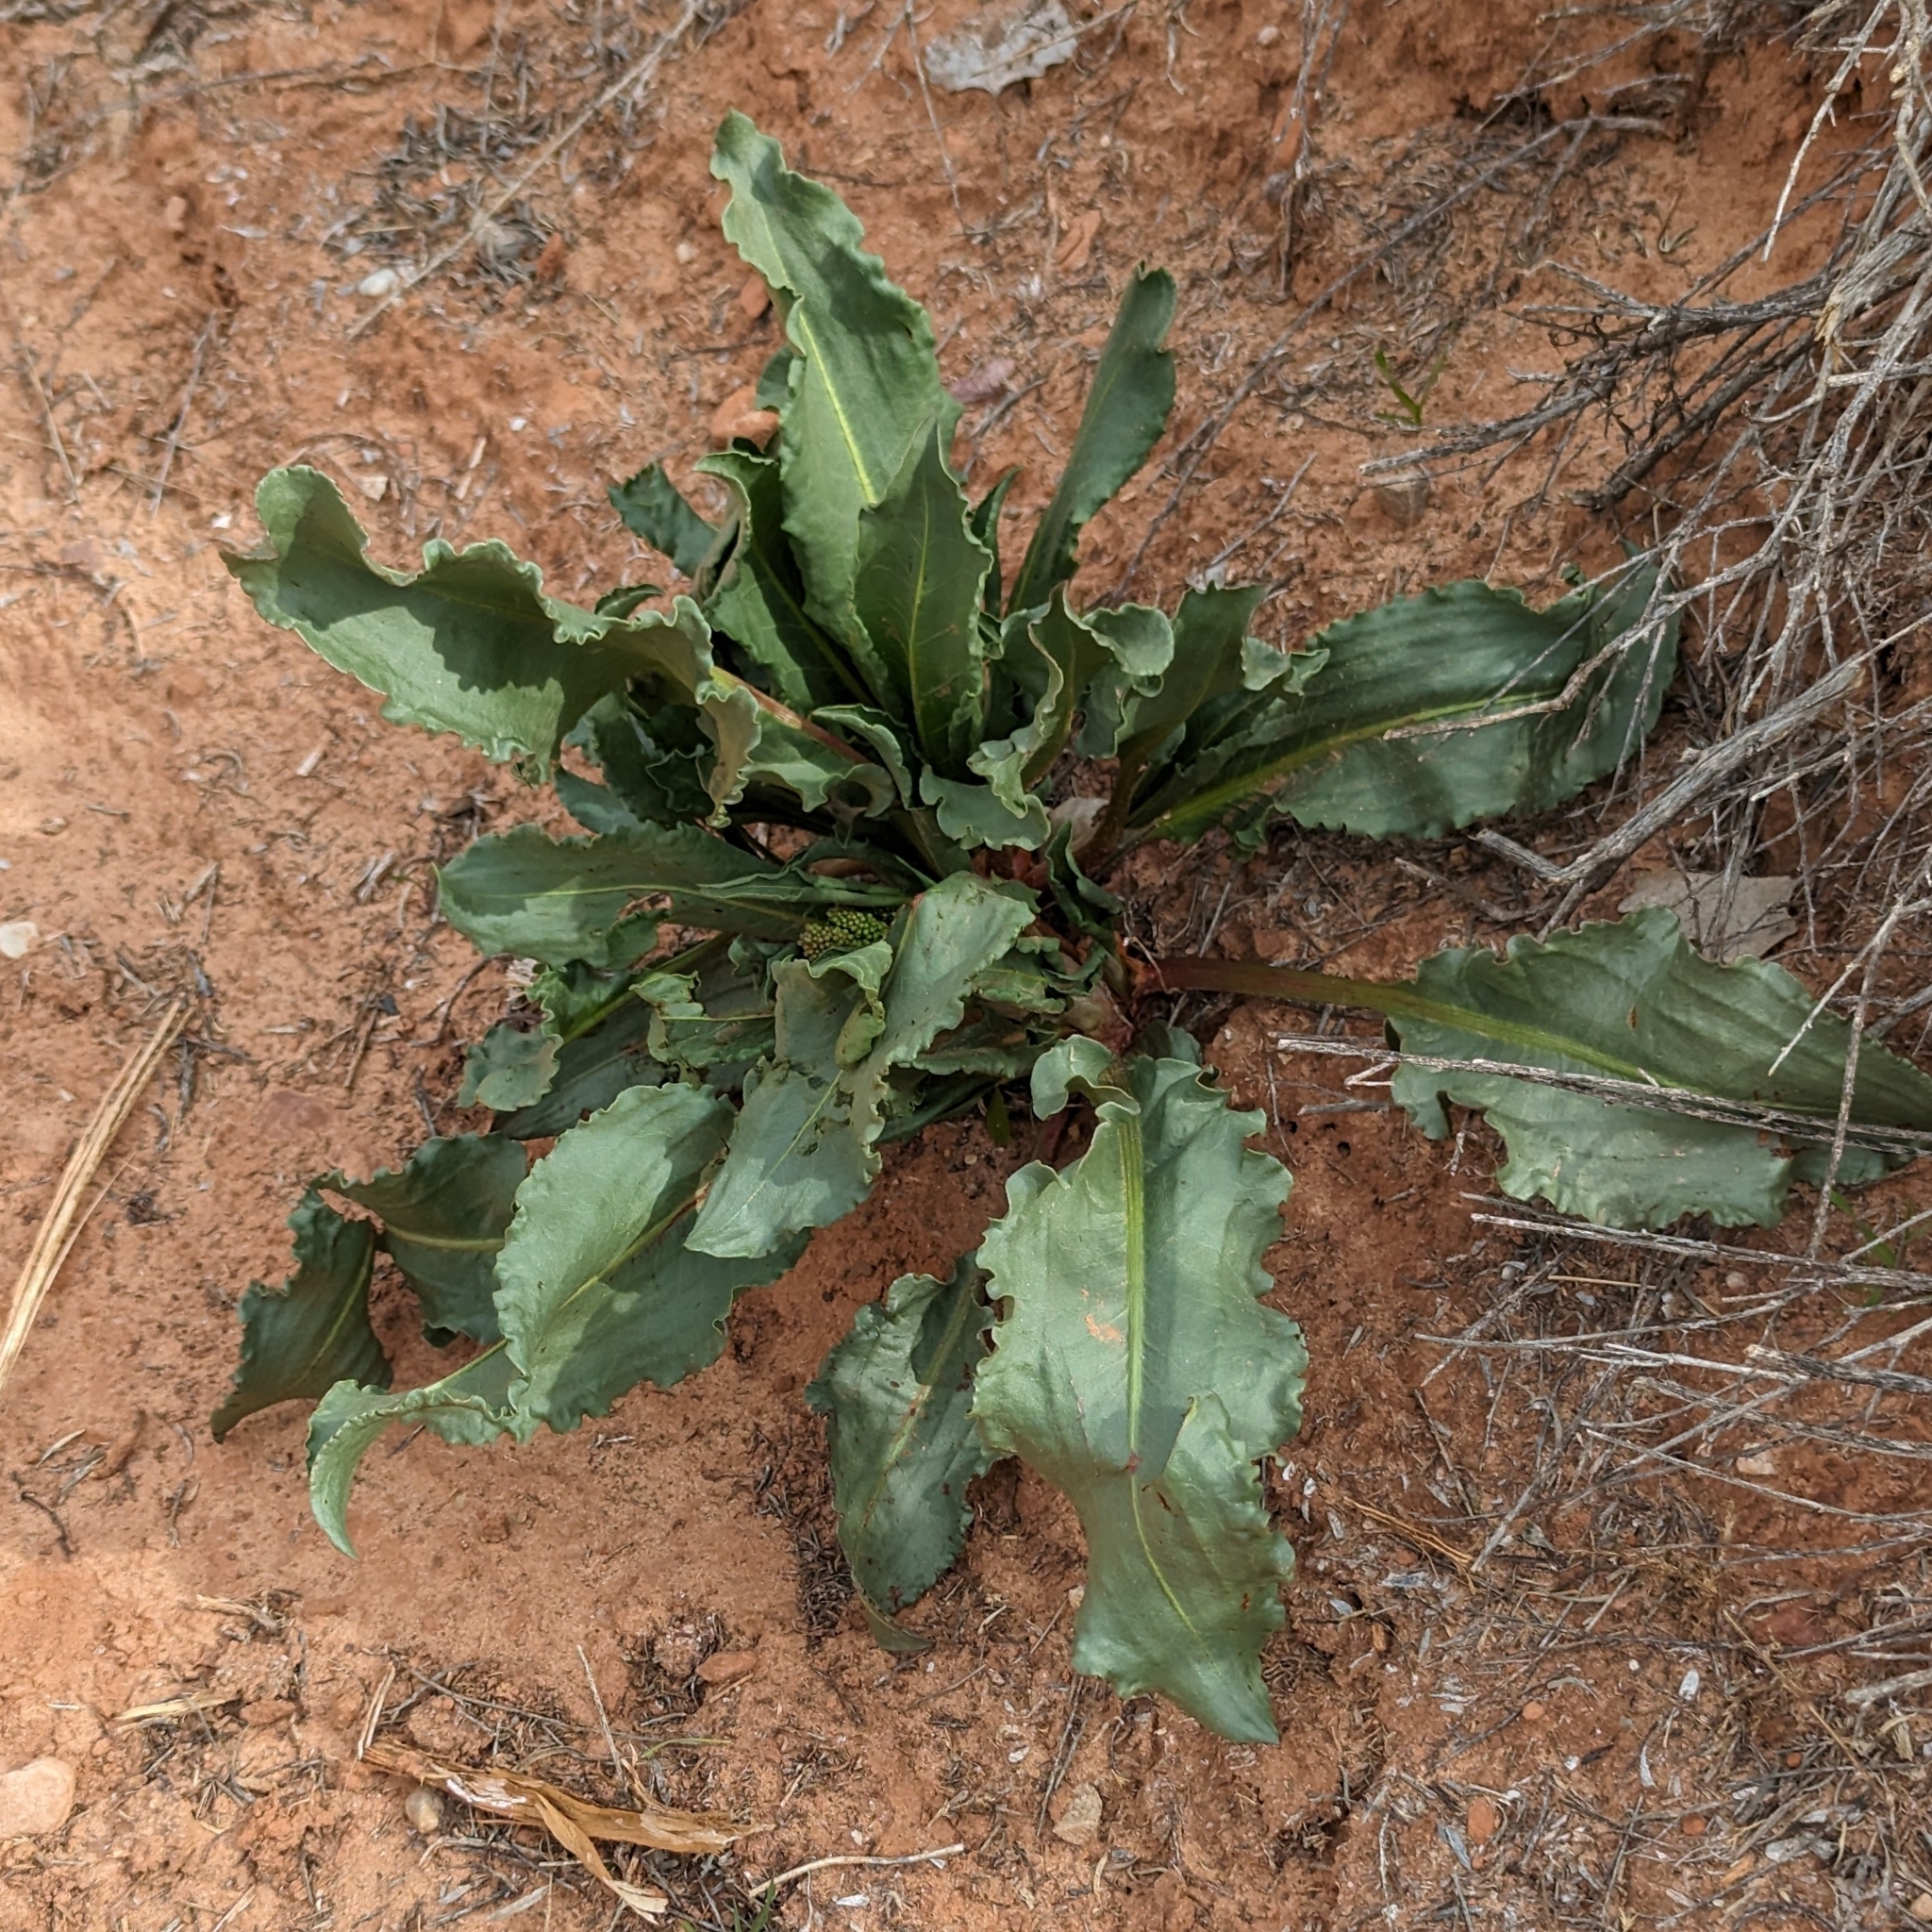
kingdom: Plantae
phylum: Tracheophyta
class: Magnoliopsida
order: Caryophyllales
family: Polygonaceae
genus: Rumex
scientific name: Rumex hymenosepalus
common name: Ganagra
